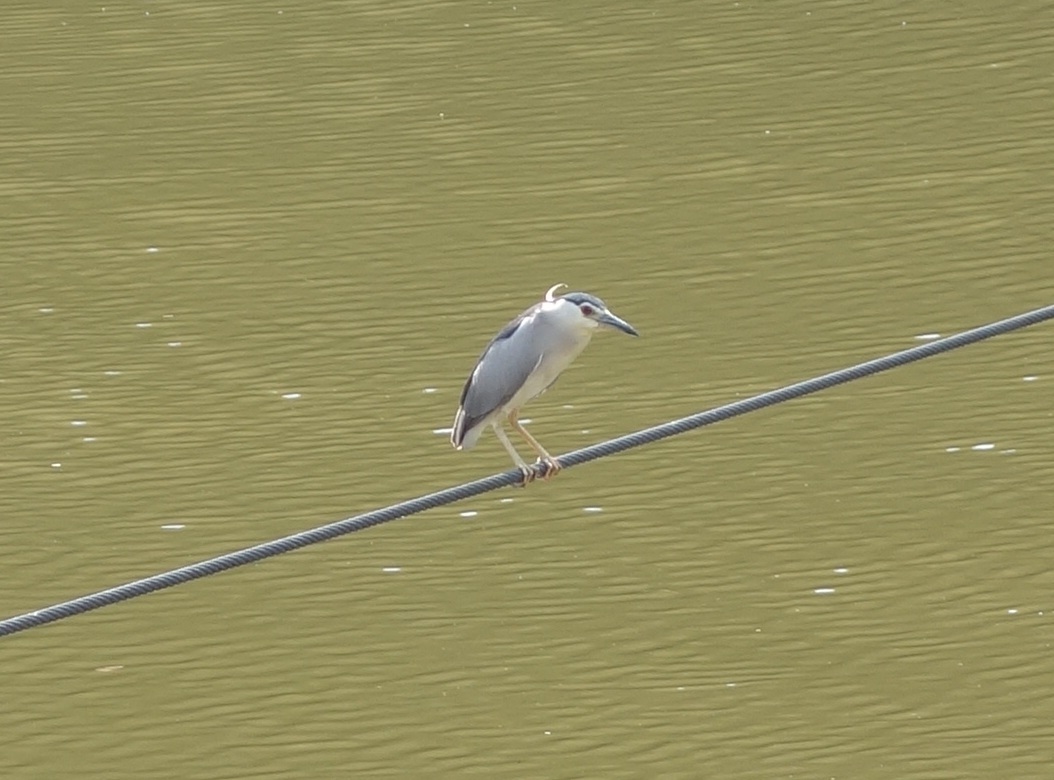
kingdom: Animalia
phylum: Chordata
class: Aves
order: Pelecaniformes
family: Ardeidae
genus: Nycticorax
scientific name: Nycticorax nycticorax
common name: Black-crowned night heron
